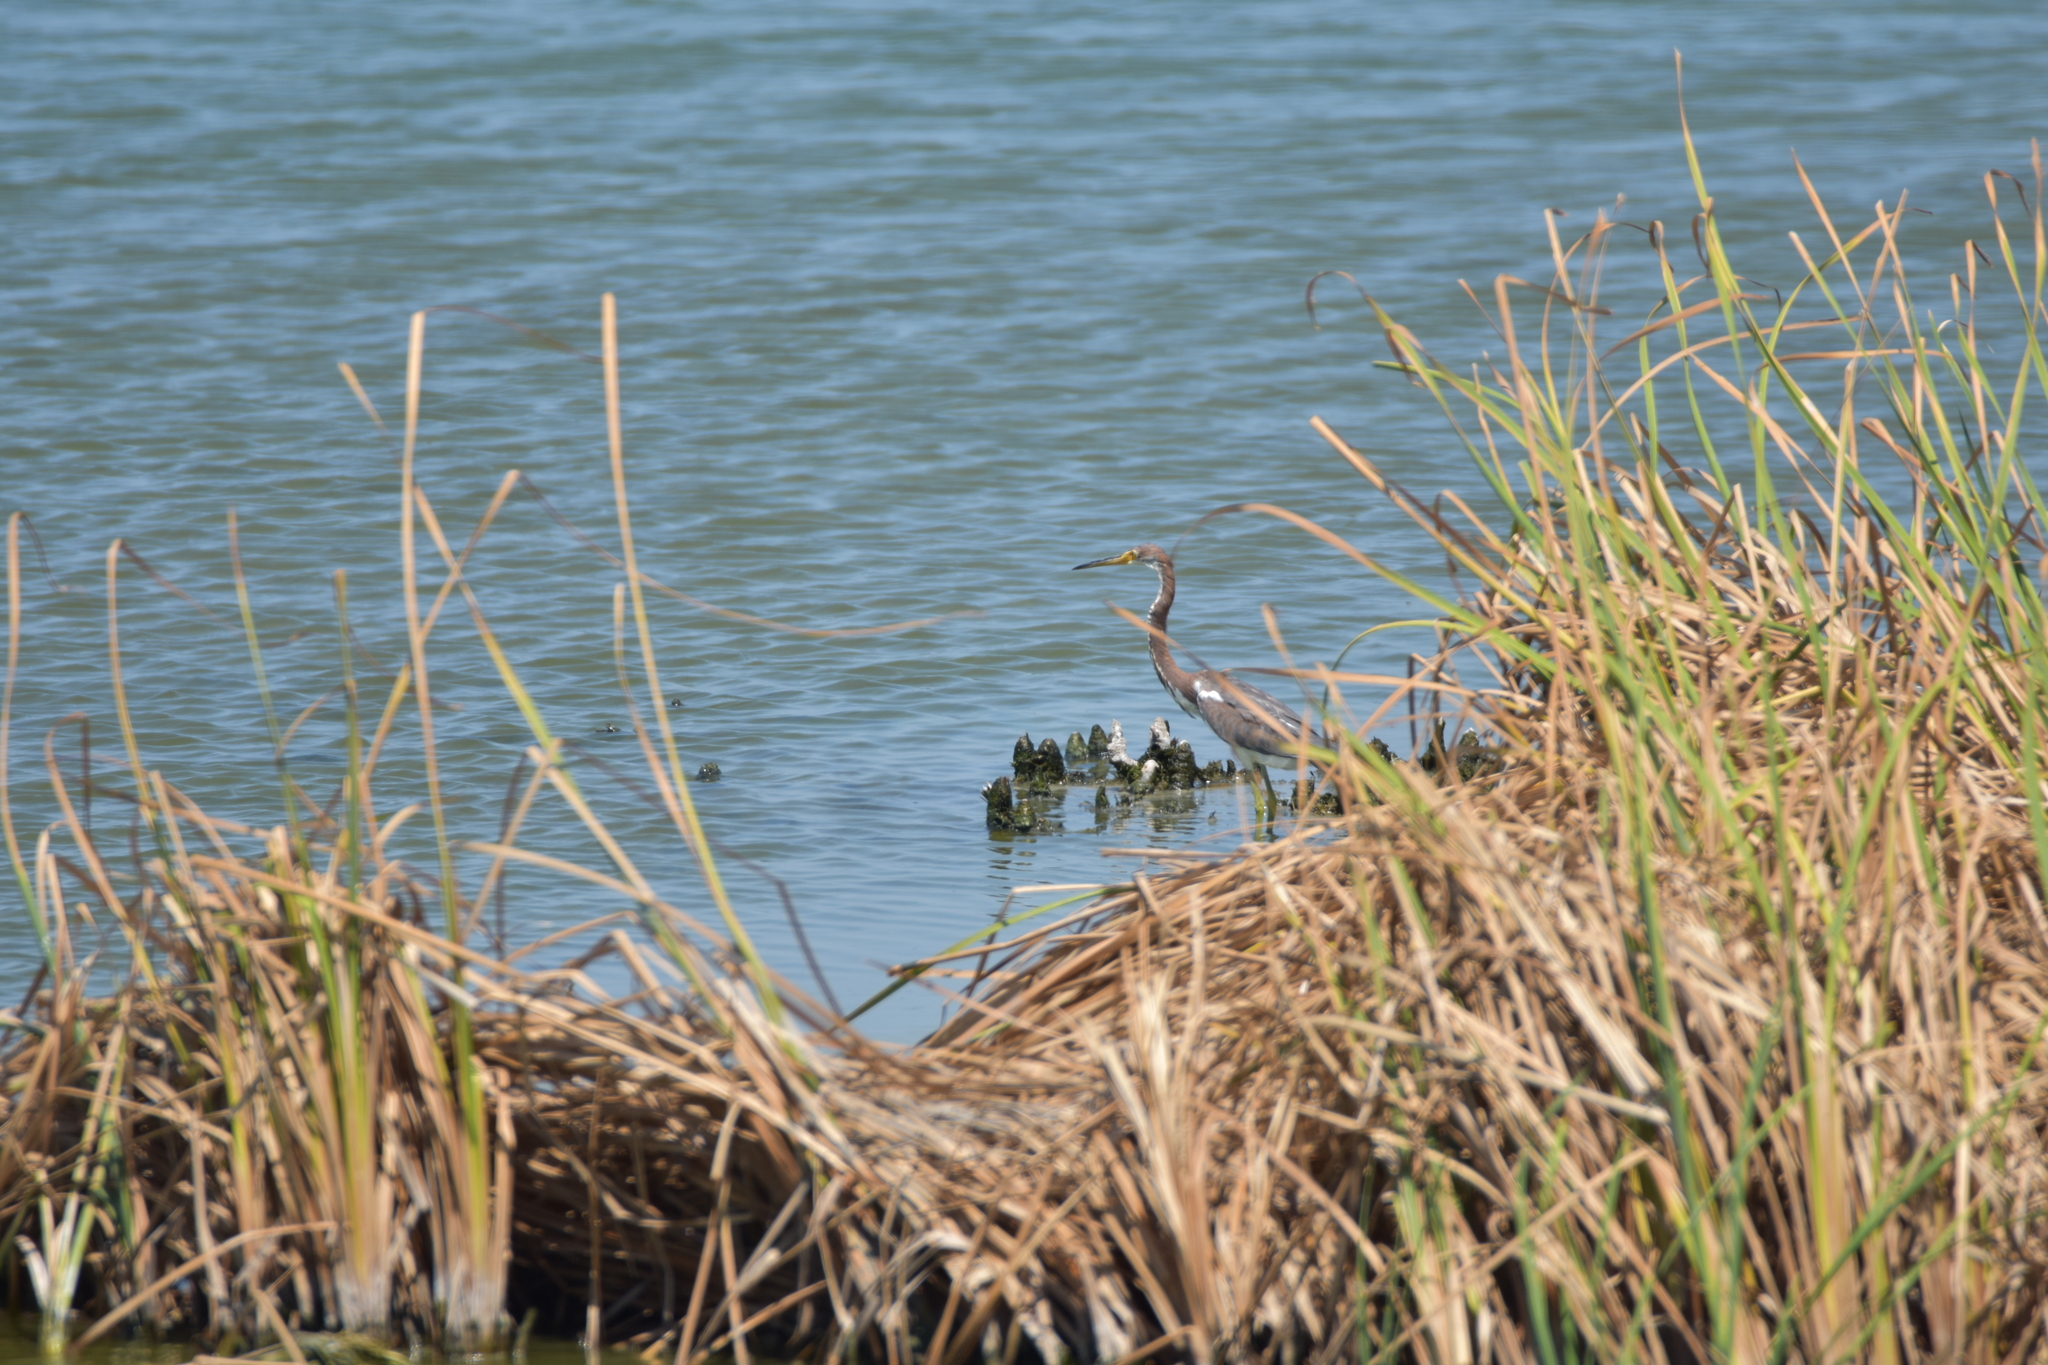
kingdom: Animalia
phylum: Chordata
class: Aves
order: Pelecaniformes
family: Ardeidae
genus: Egretta
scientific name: Egretta tricolor
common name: Tricolored heron
